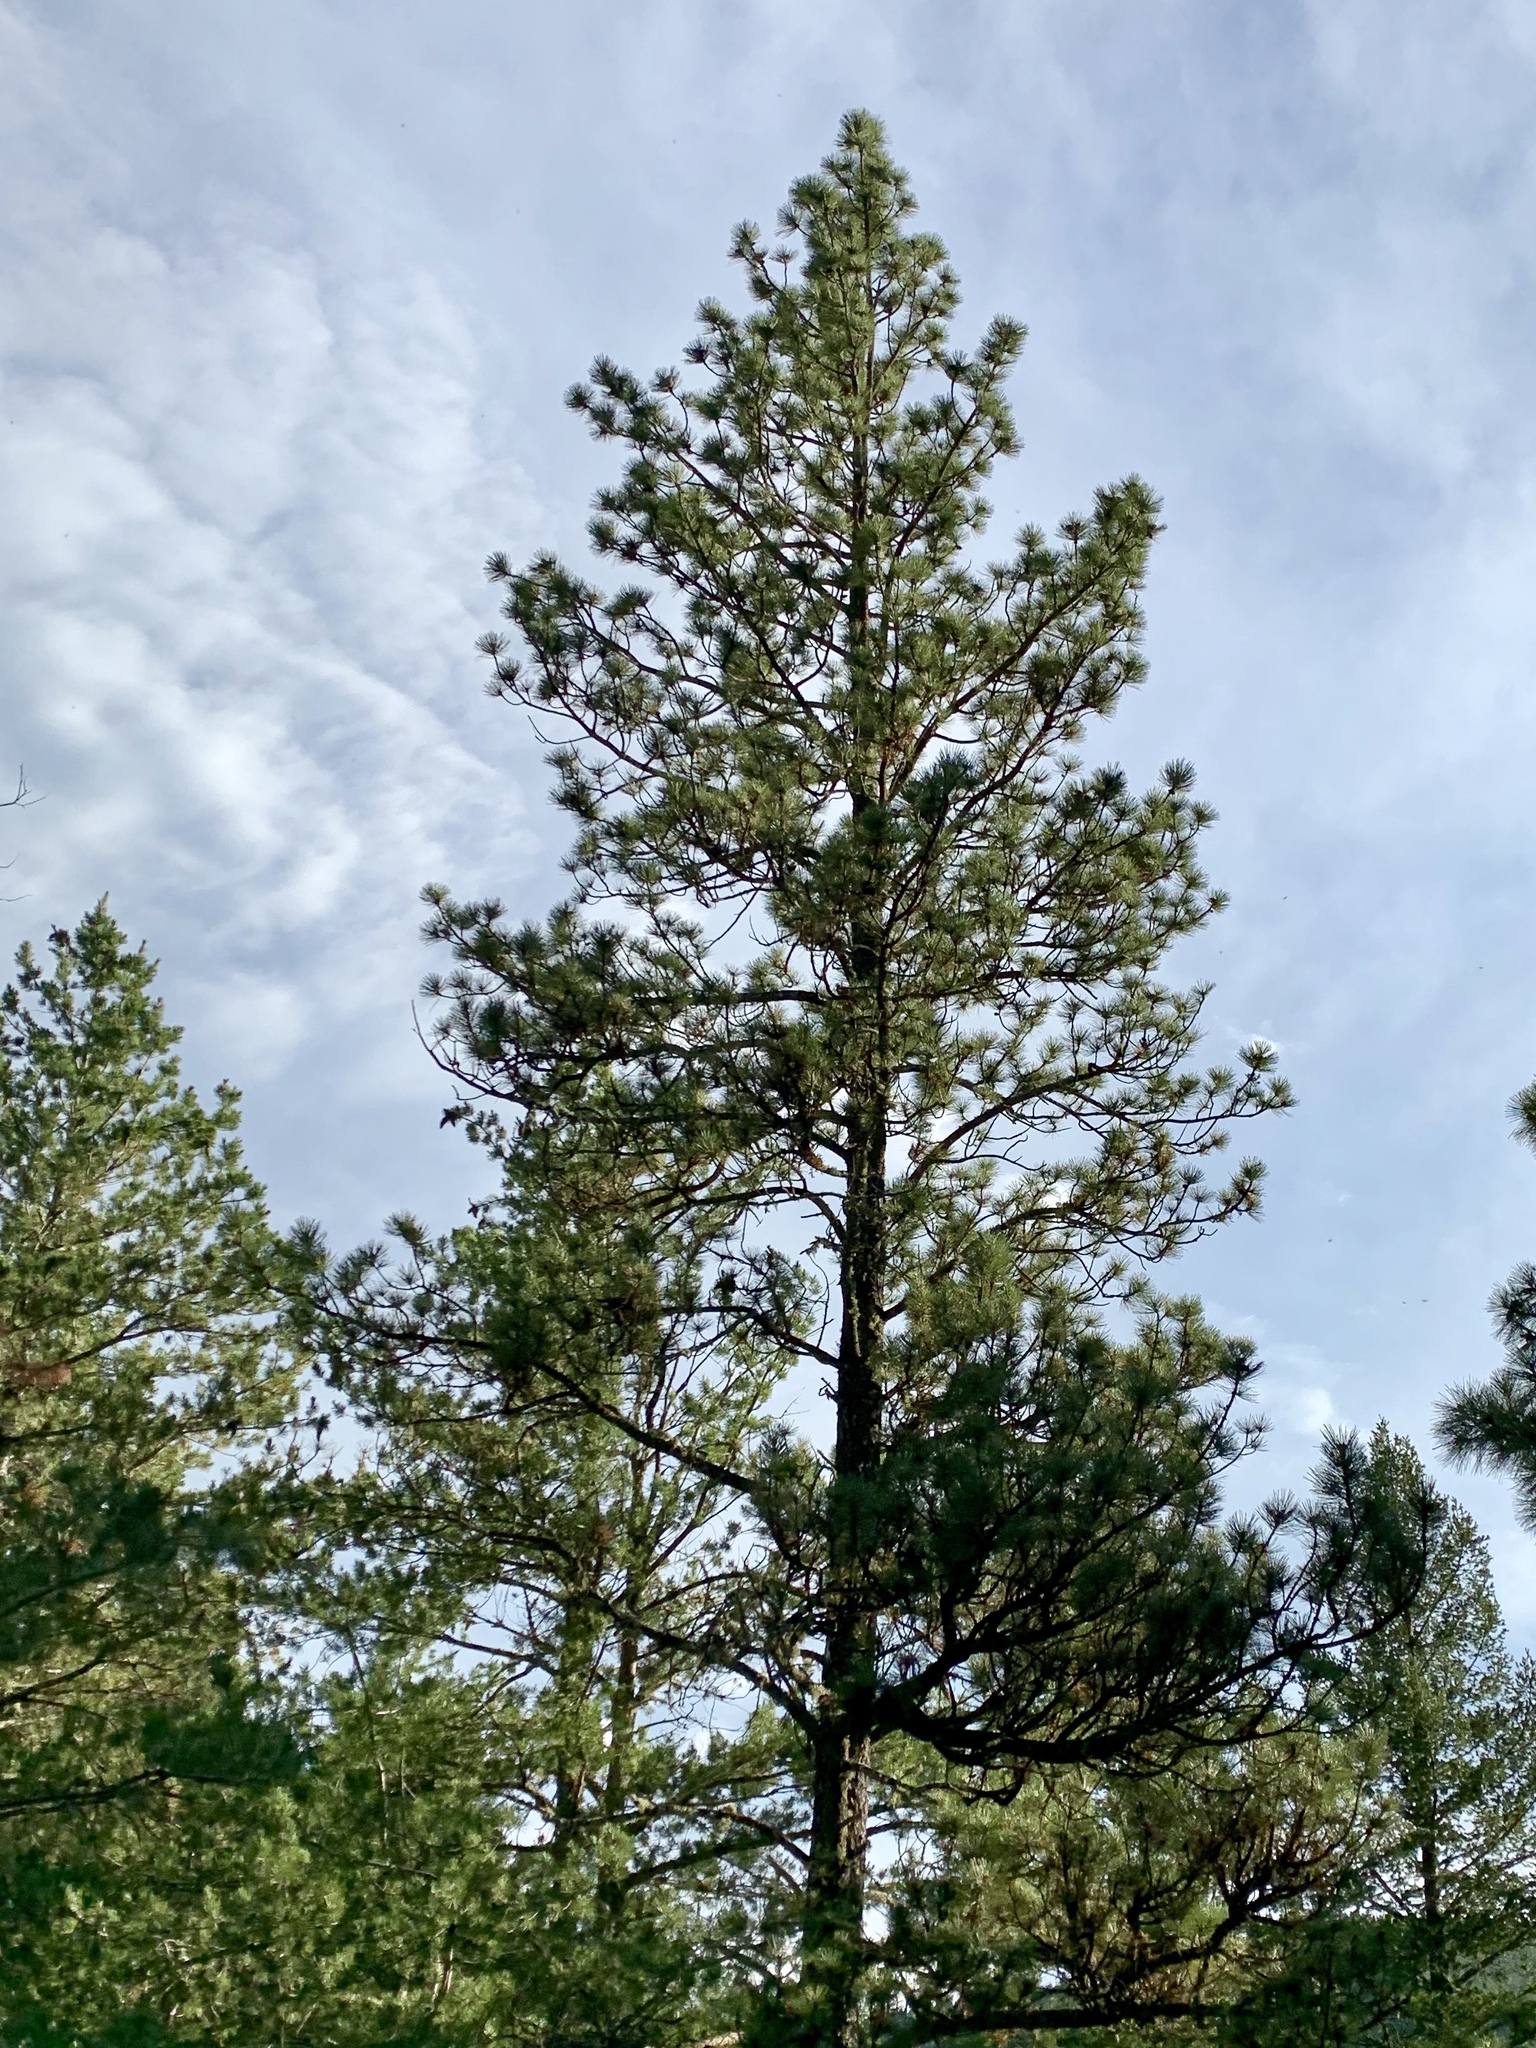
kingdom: Plantae
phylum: Tracheophyta
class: Pinopsida
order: Pinales
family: Pinaceae
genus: Pinus
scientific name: Pinus ponderosa
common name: Western yellow-pine
